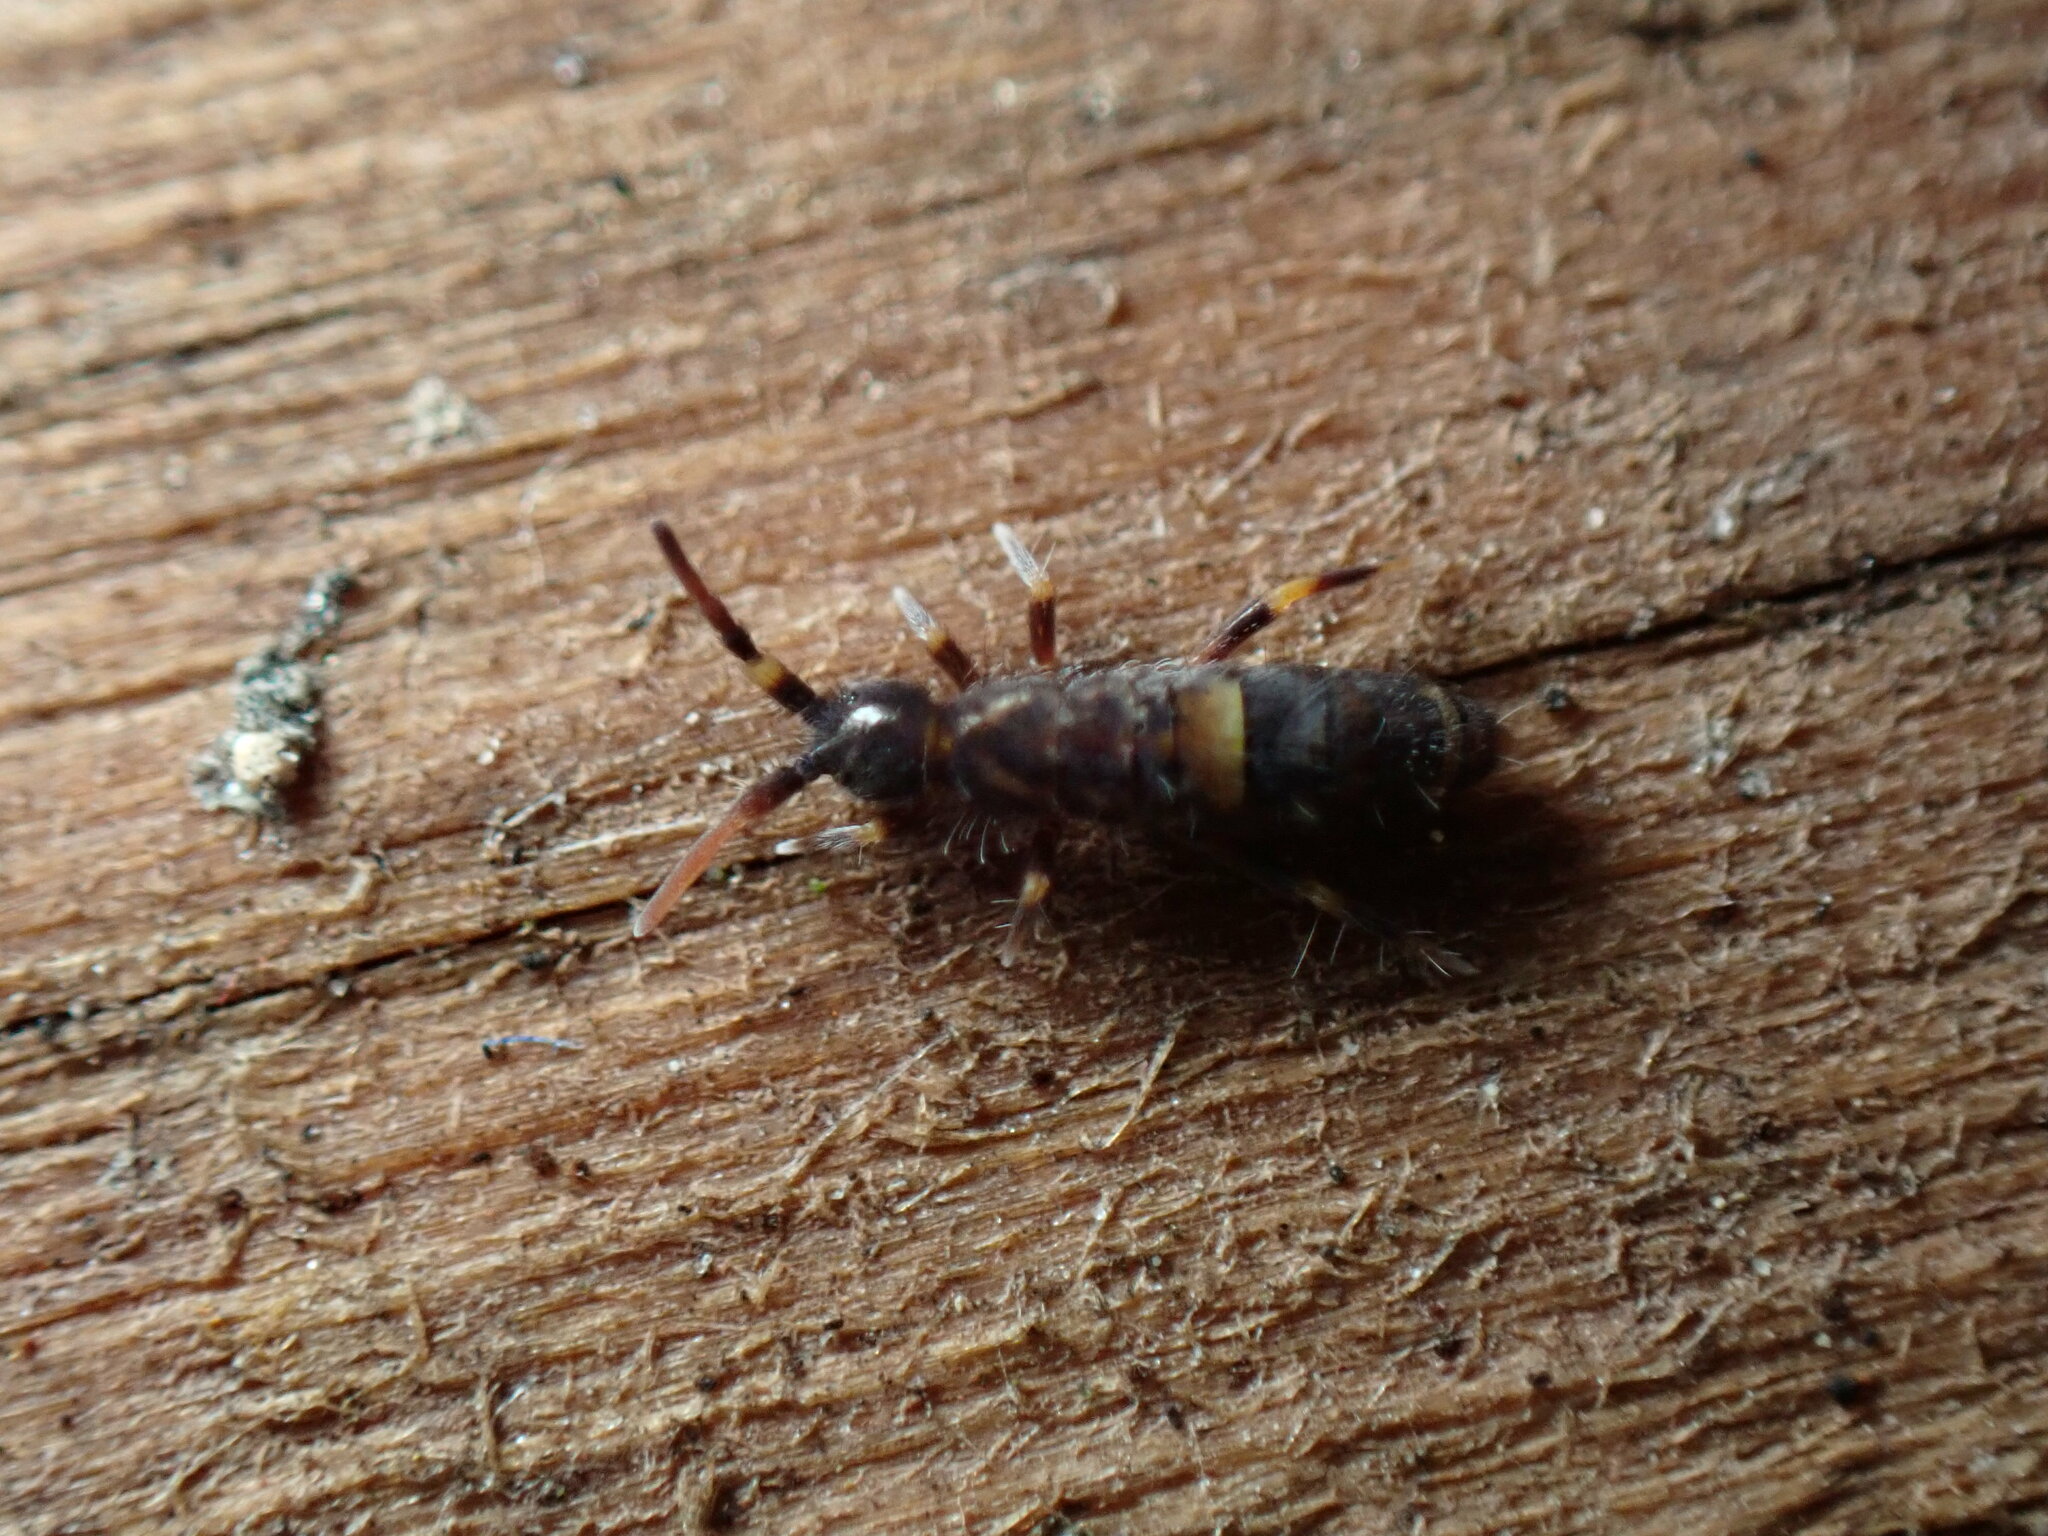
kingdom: Animalia
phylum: Arthropoda
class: Collembola
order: Entomobryomorpha
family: Orchesellidae
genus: Orchesella
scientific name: Orchesella cincta
